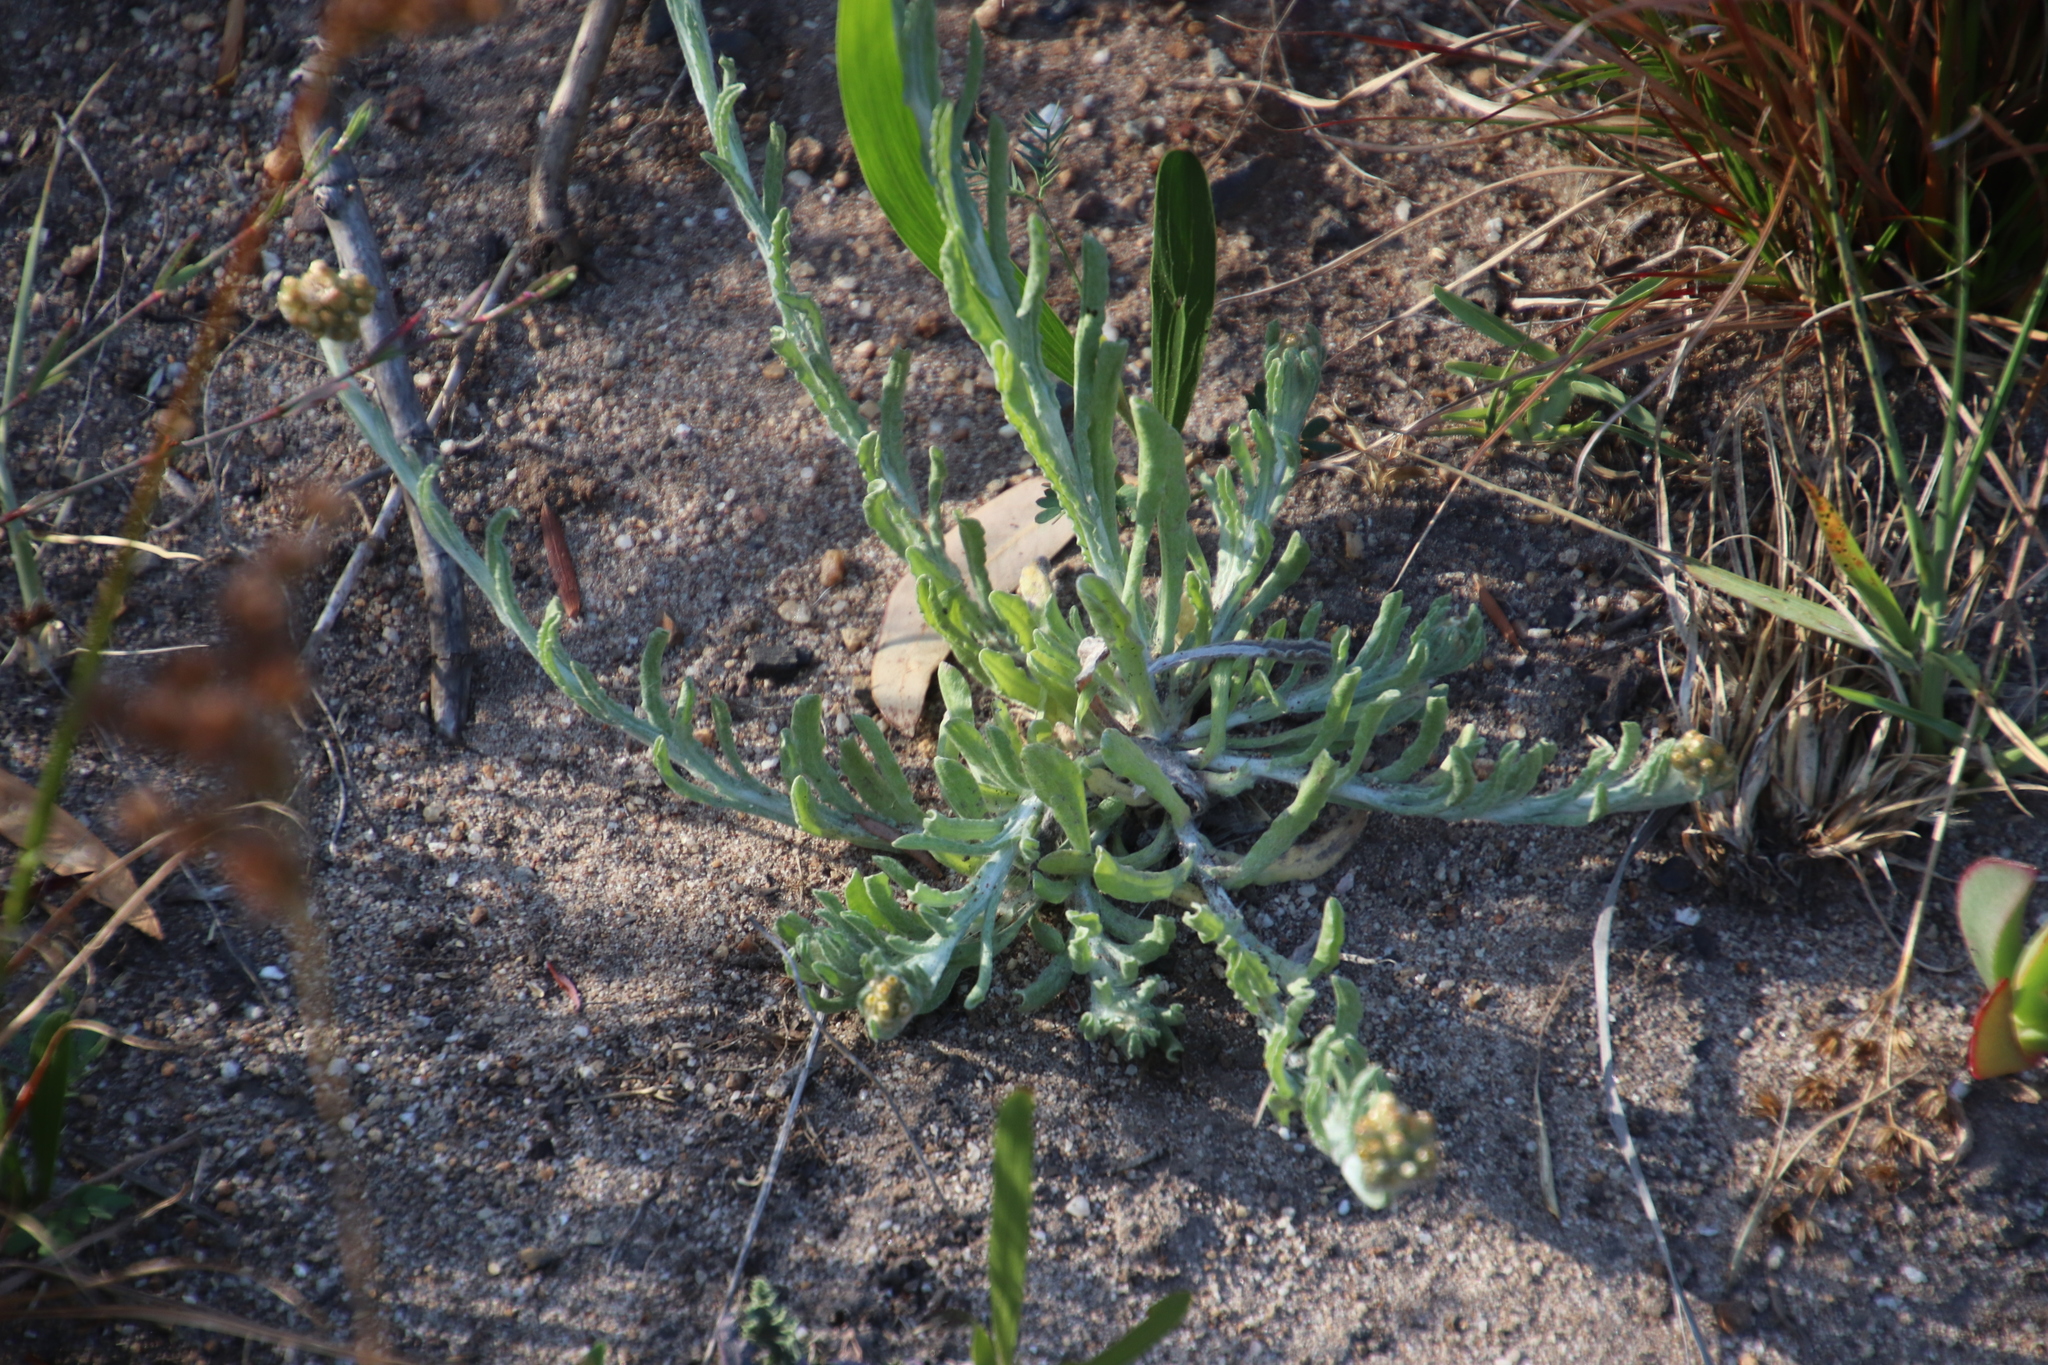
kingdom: Plantae
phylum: Tracheophyta
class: Magnoliopsida
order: Asterales
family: Asteraceae
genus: Pseudognaphalium
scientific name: Pseudognaphalium undulatum
